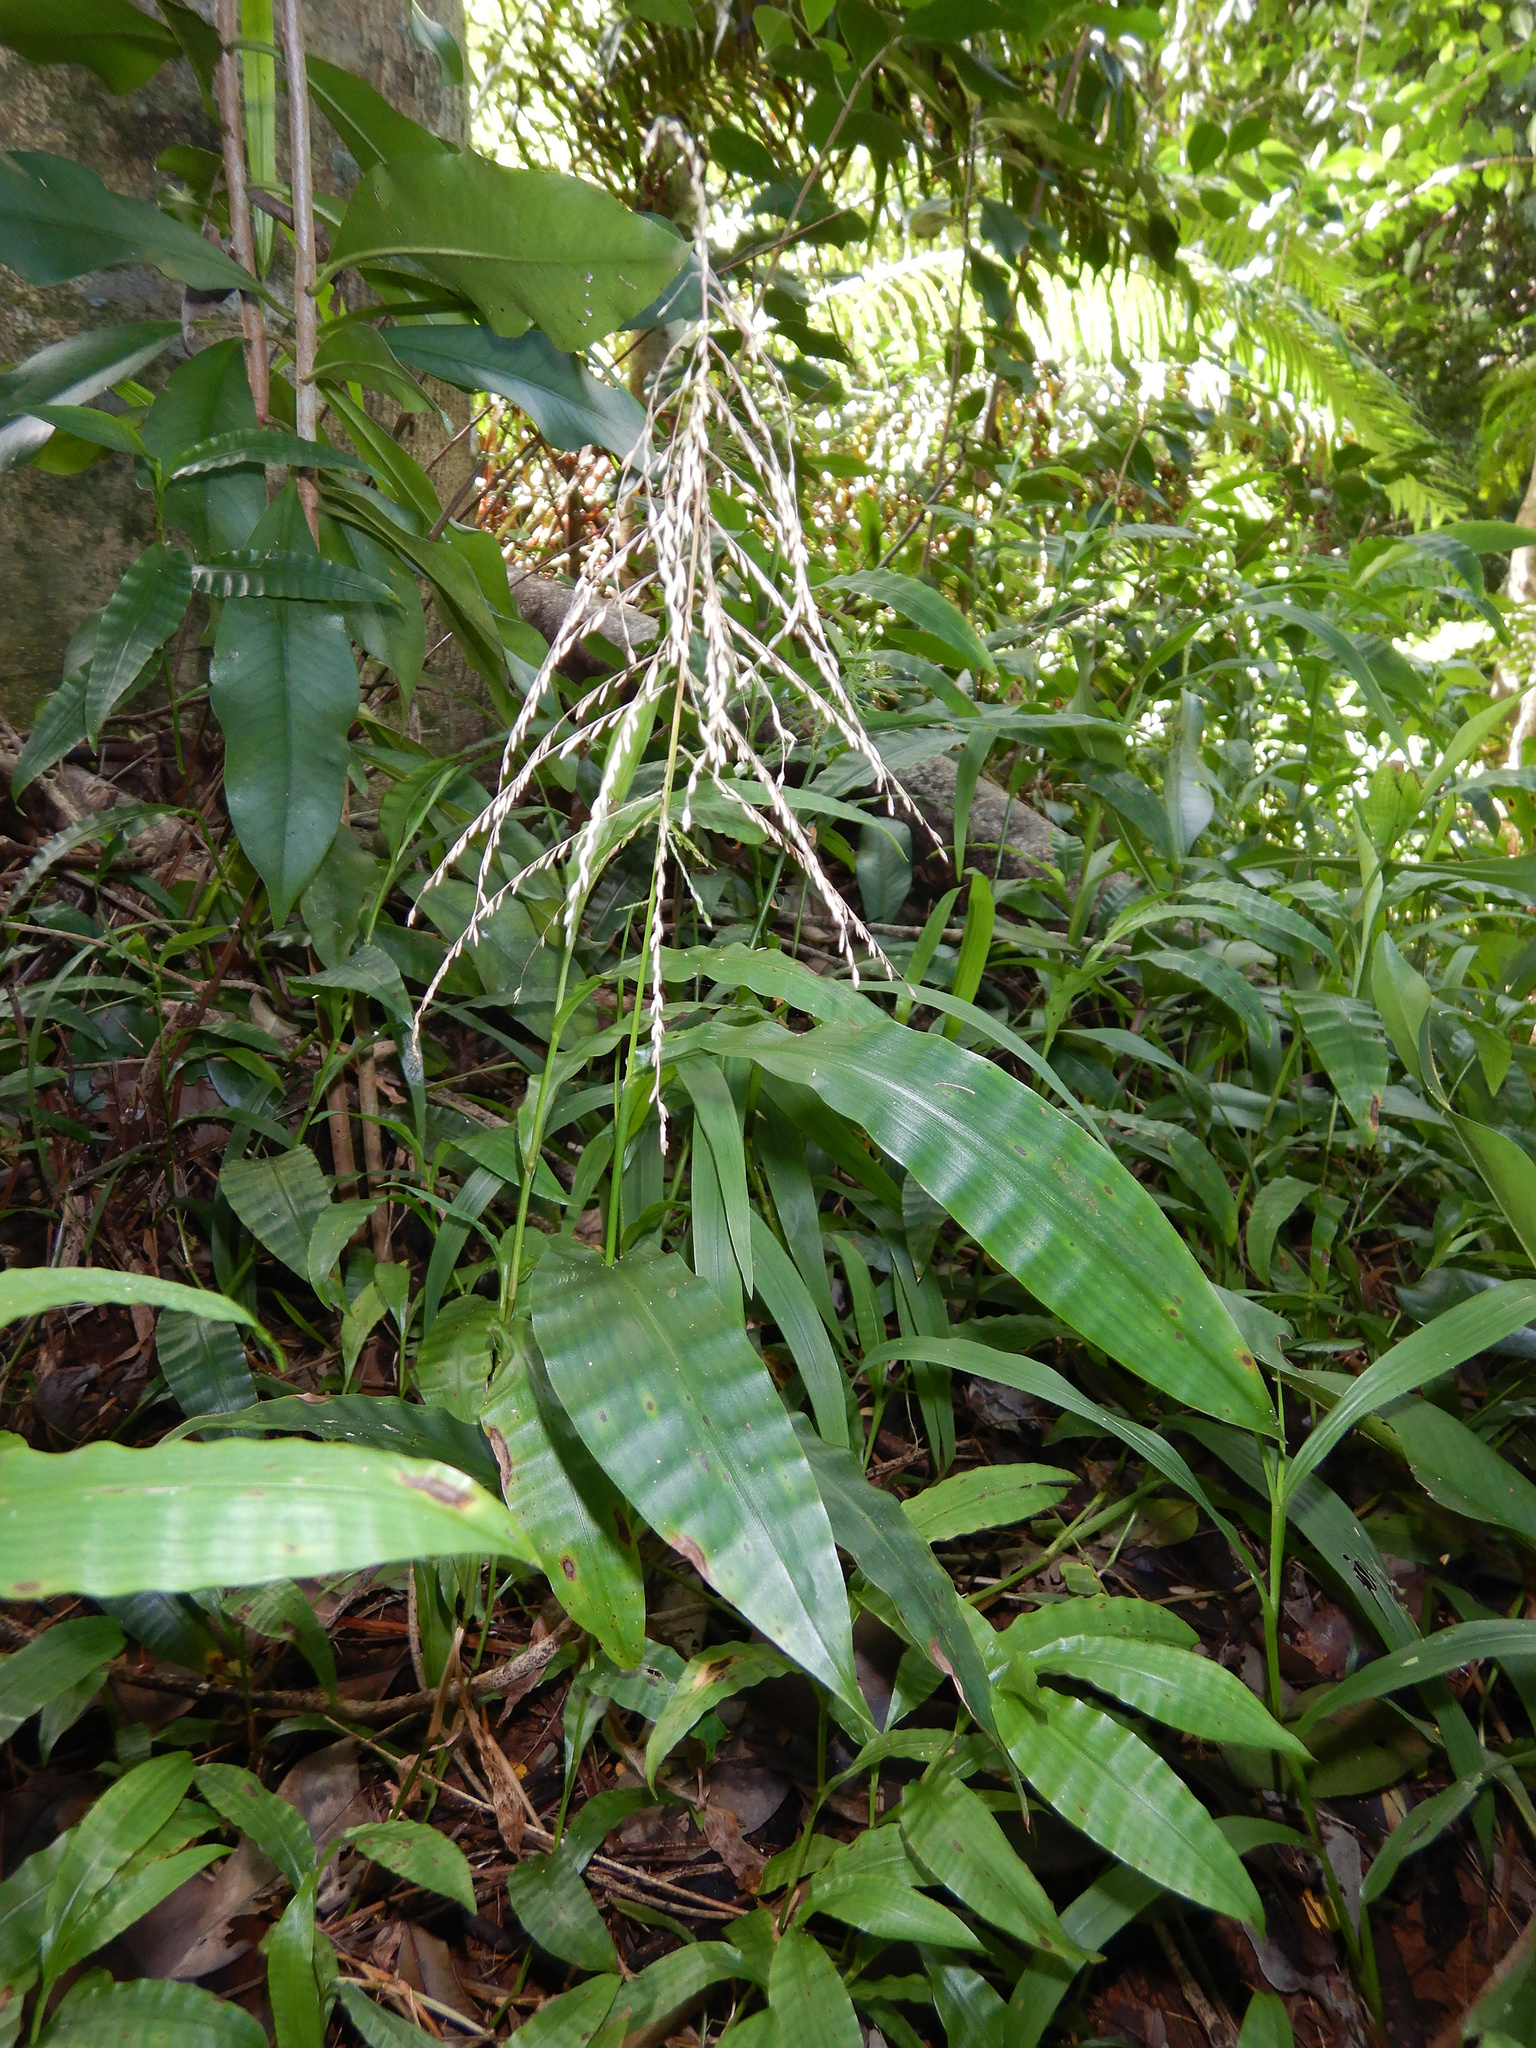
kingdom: Plantae
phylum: Tracheophyta
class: Liliopsida
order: Poales
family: Poaceae
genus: Centotheca
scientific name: Centotheca lappacea
